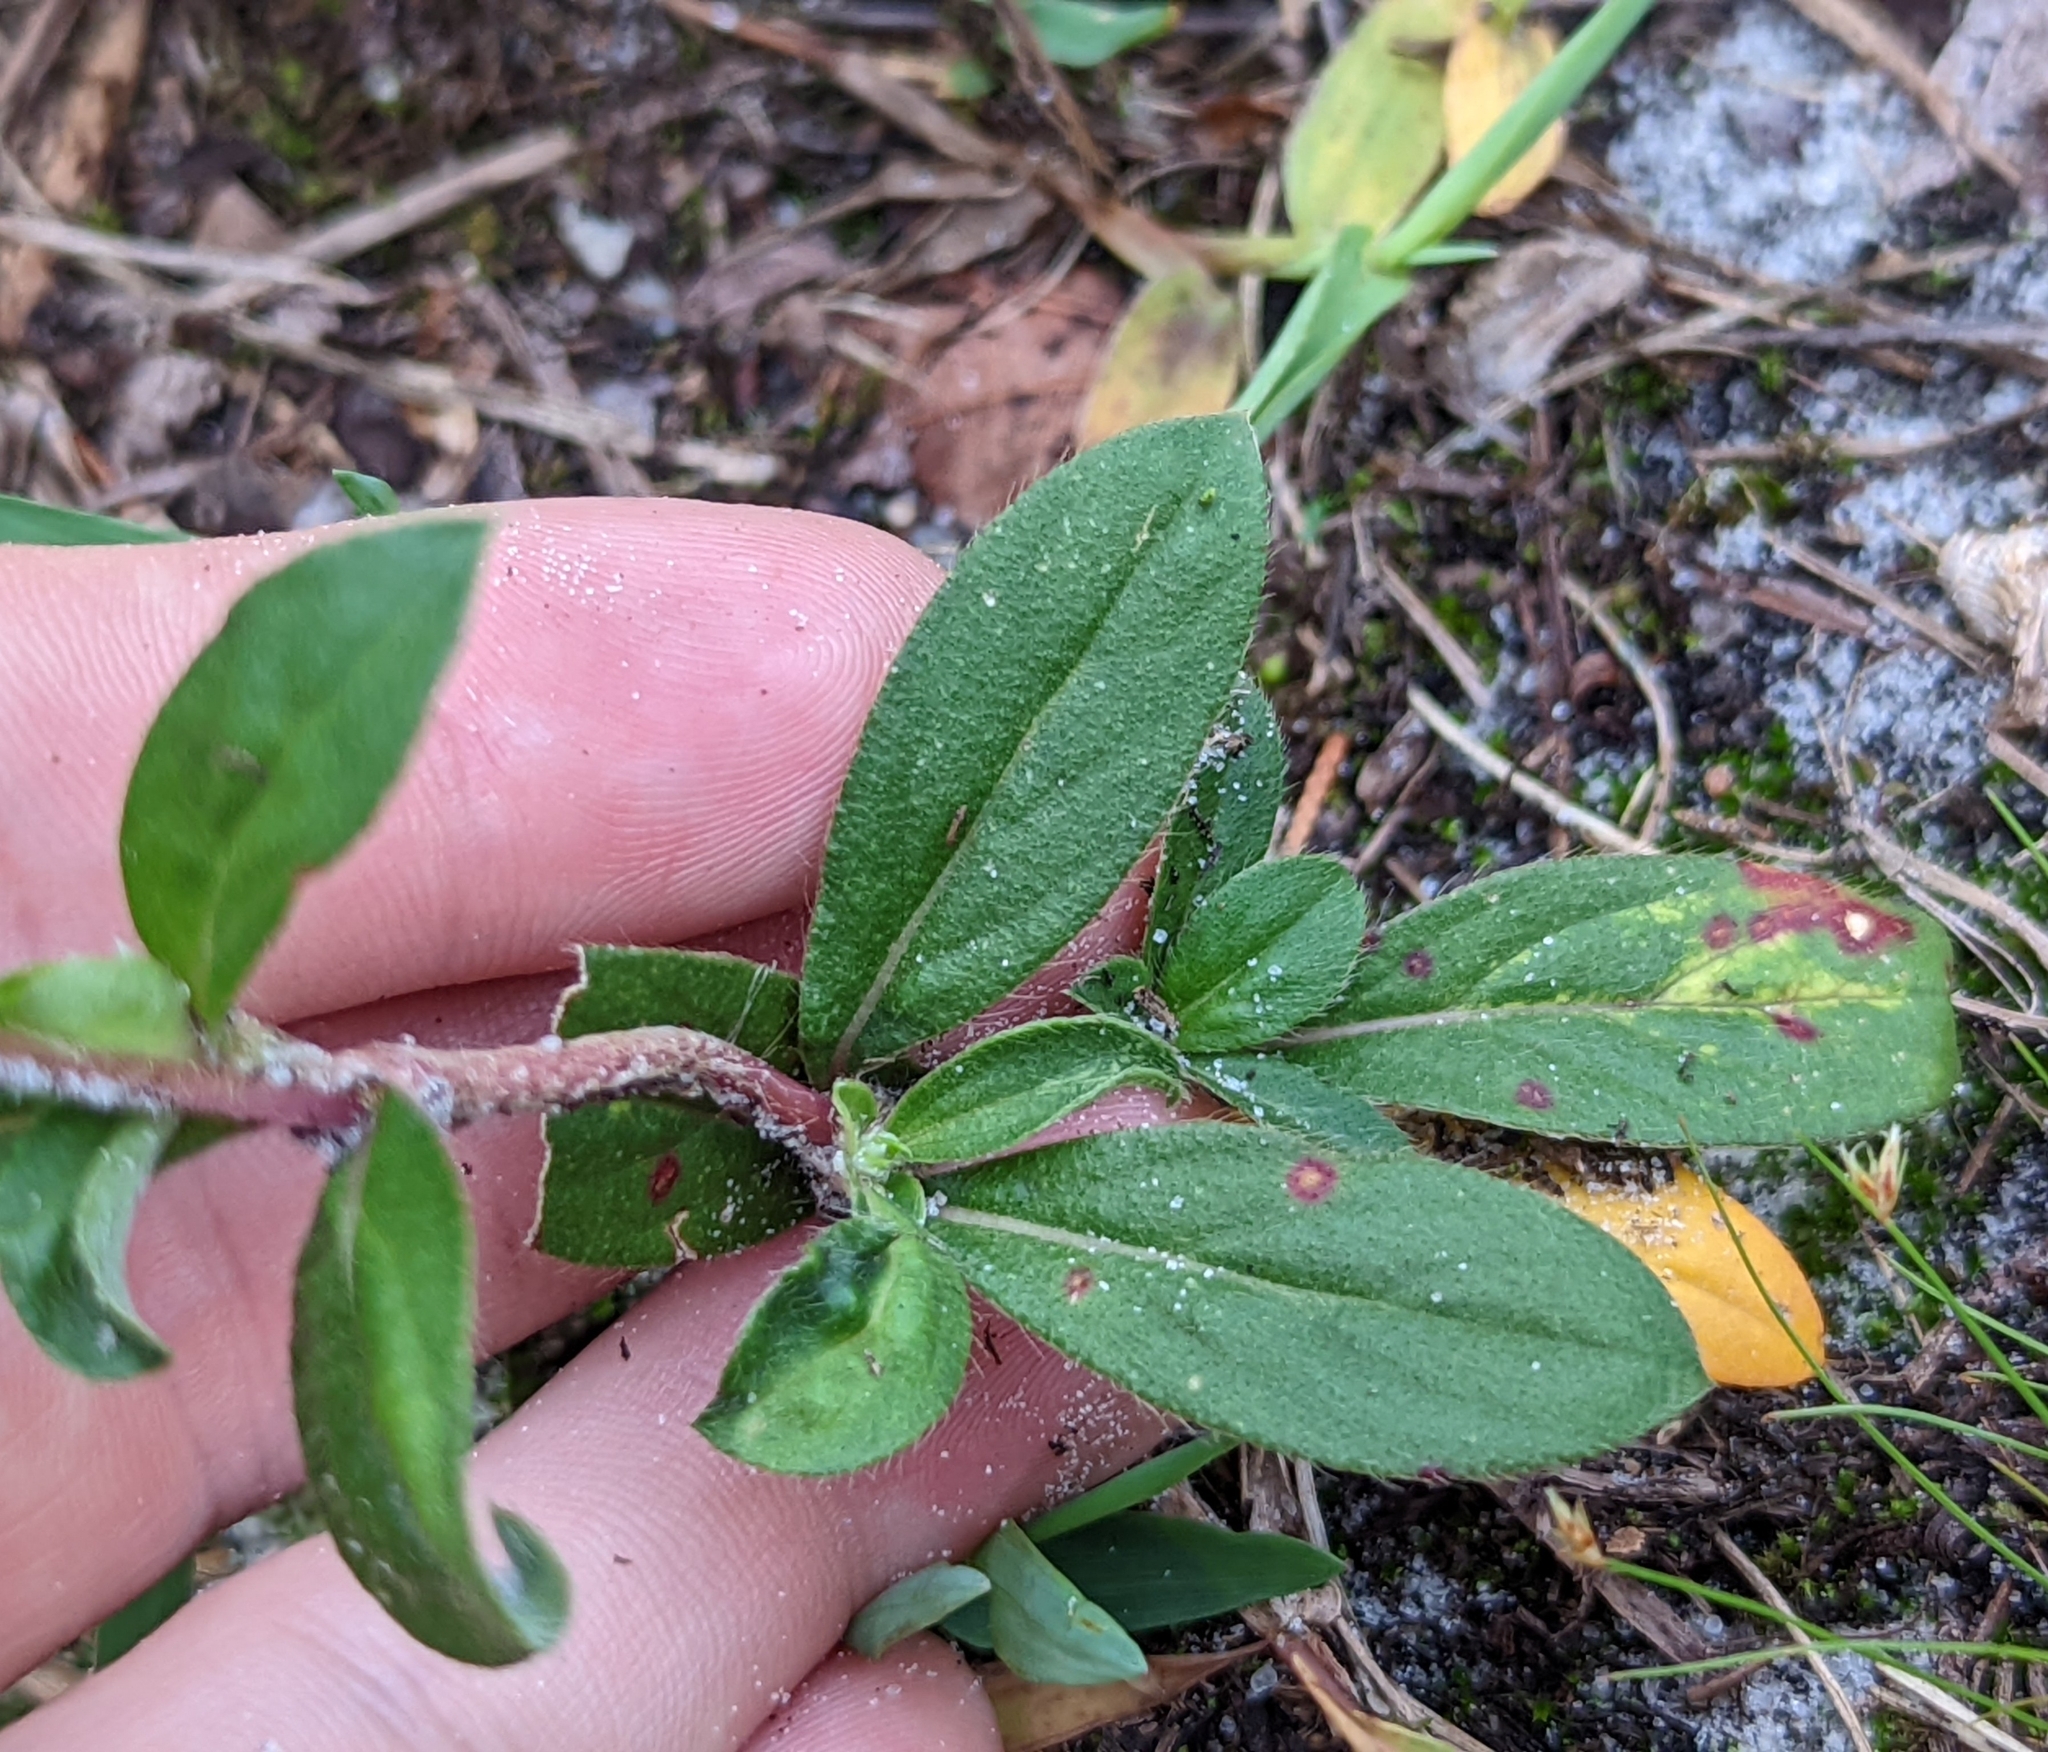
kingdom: Plantae
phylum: Tracheophyta
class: Magnoliopsida
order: Caryophyllales
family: Amaranthaceae
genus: Gomphrena
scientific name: Gomphrena serrata
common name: Arrasa con todo
